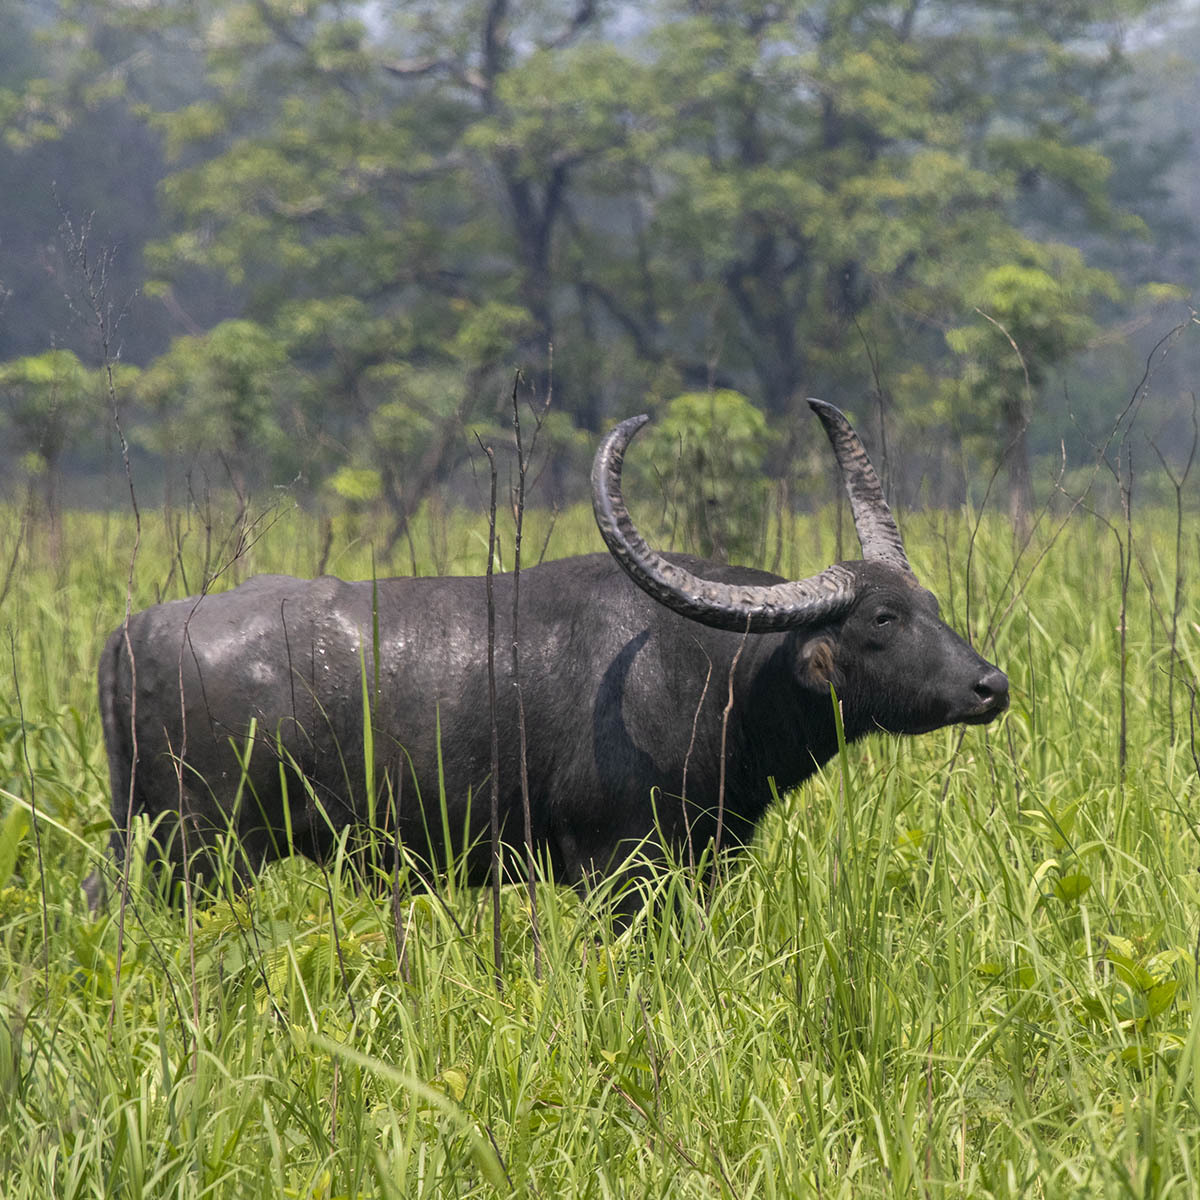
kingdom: Animalia
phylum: Chordata
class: Mammalia
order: Artiodactyla
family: Bovidae
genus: Bubalus
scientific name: Bubalus bubalis
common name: Water buffalo
